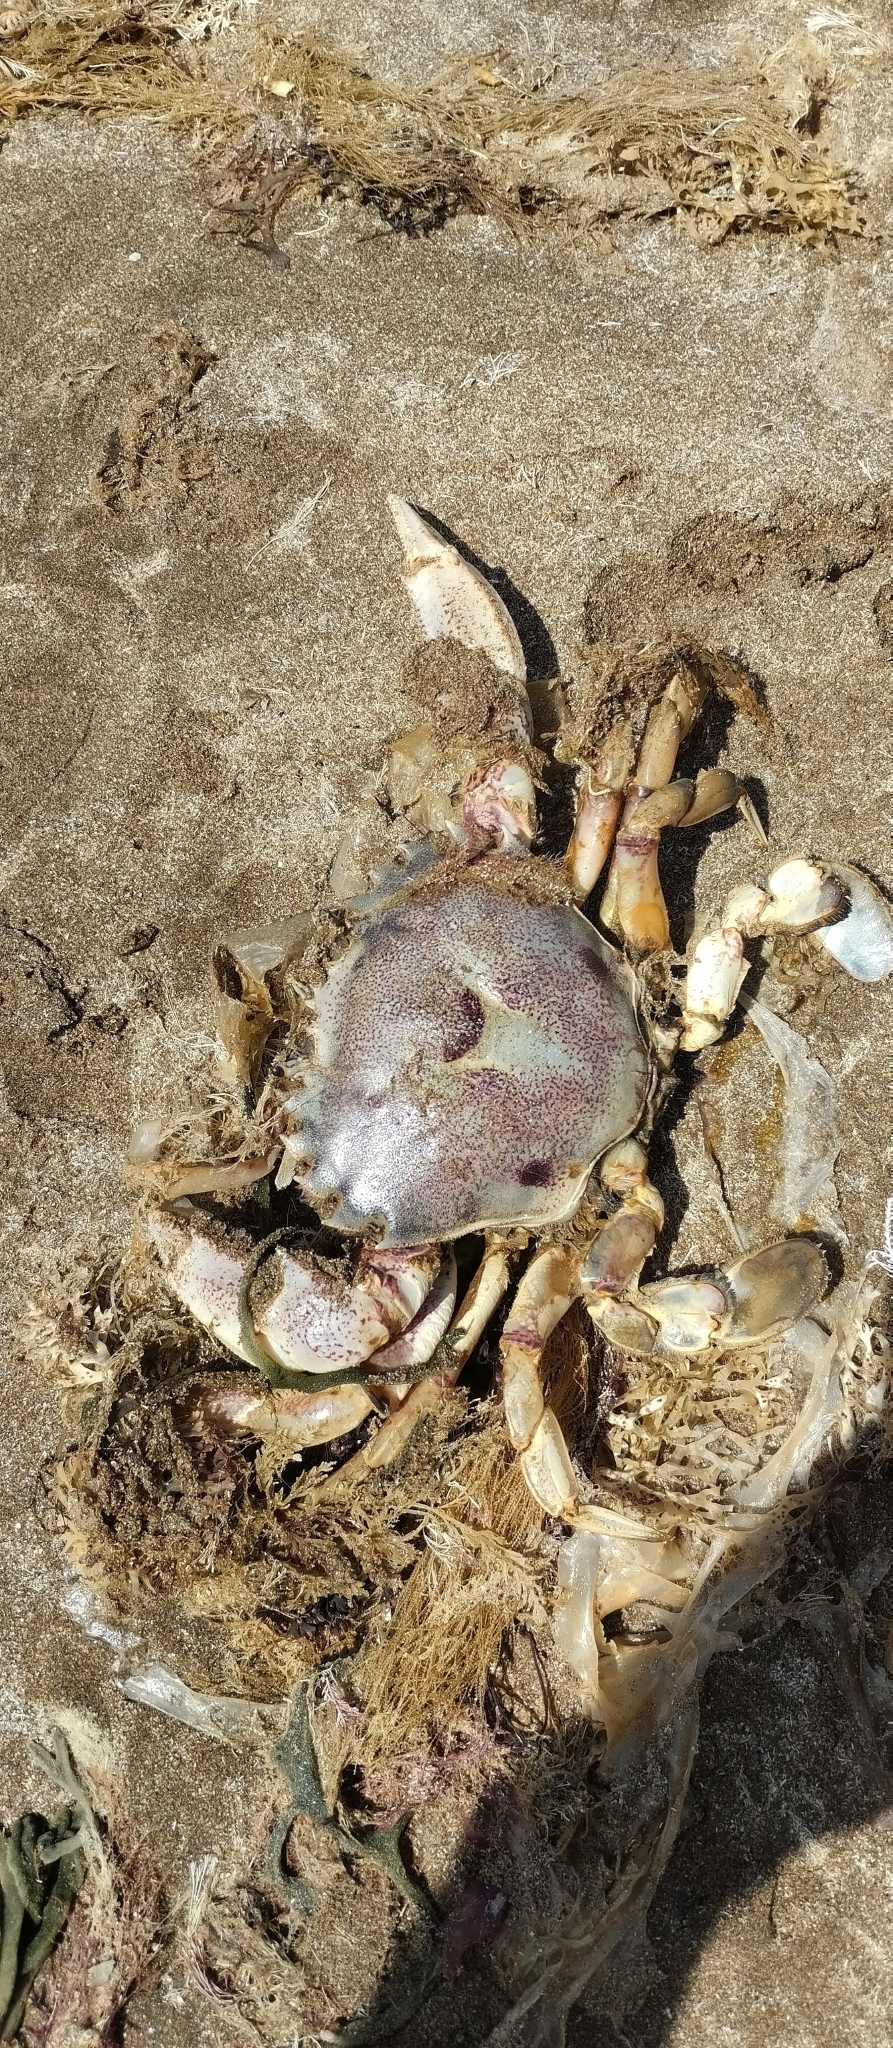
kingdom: Animalia
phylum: Arthropoda
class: Malacostraca
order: Decapoda
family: Ovalipidae
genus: Ovalipes
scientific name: Ovalipes trimaculatus
